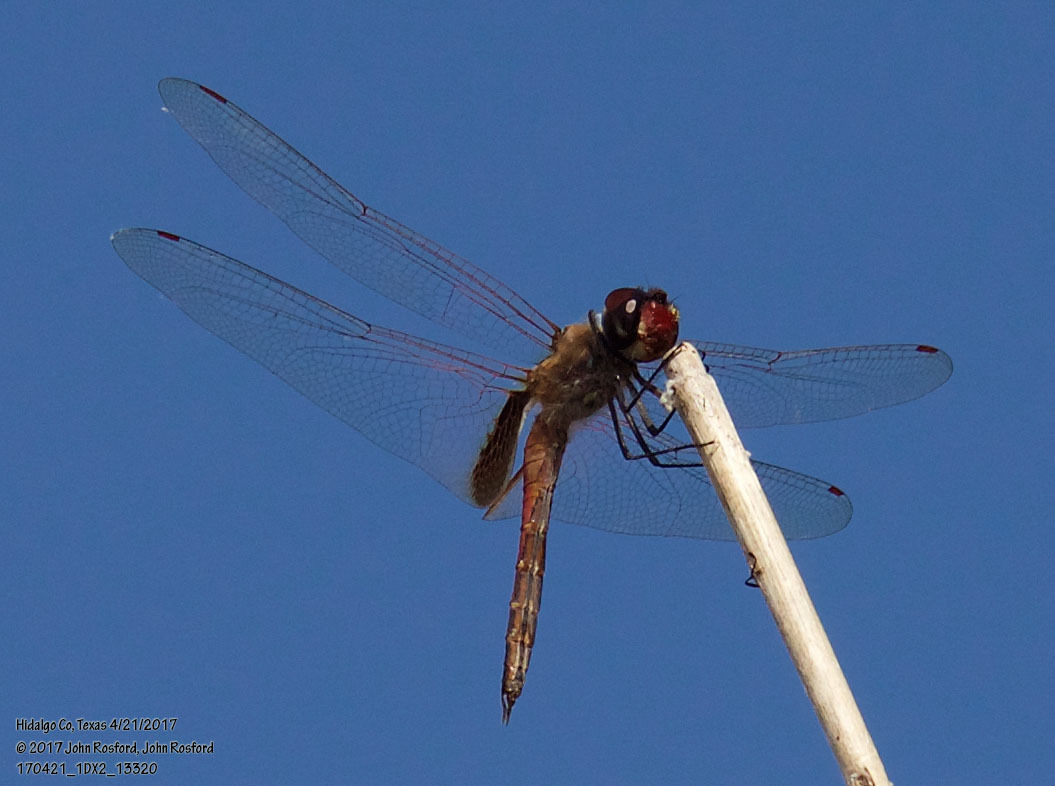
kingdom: Animalia
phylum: Arthropoda
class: Insecta
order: Odonata
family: Libellulidae
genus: Tramea
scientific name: Tramea darwini
